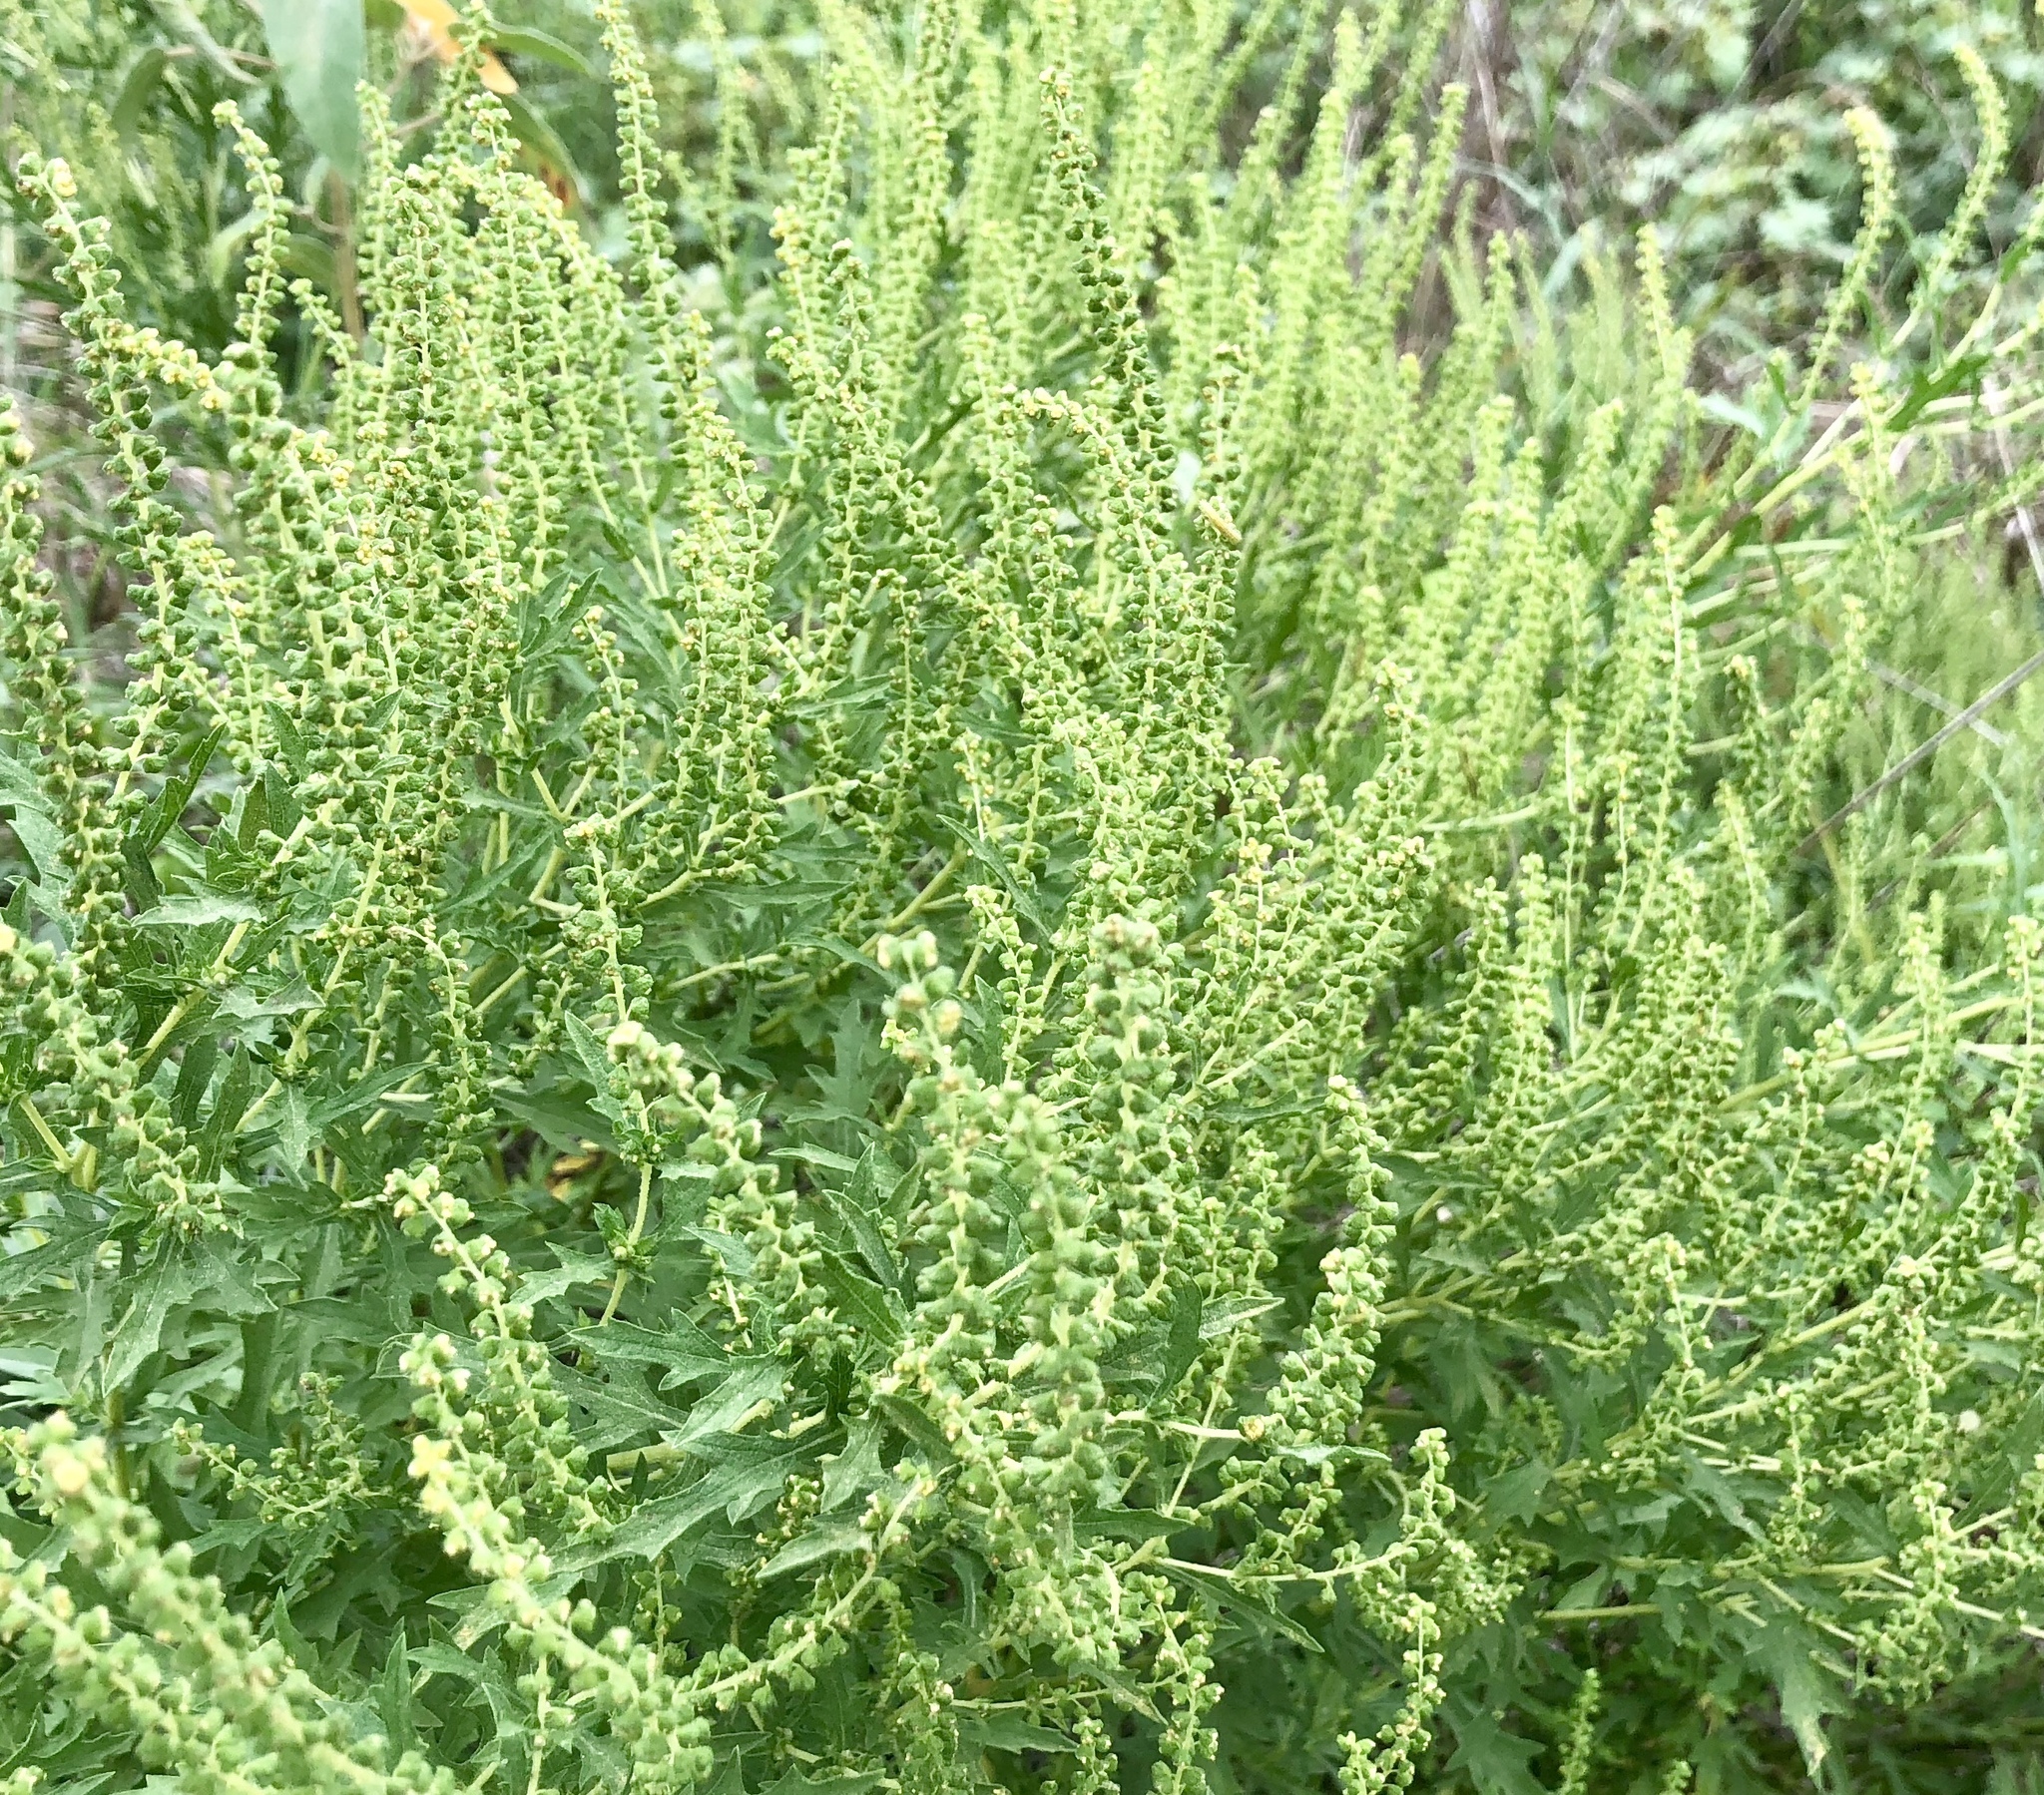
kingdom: Plantae
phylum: Tracheophyta
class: Magnoliopsida
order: Asterales
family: Asteraceae
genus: Ambrosia
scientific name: Ambrosia psilostachya
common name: Perennial ragweed
